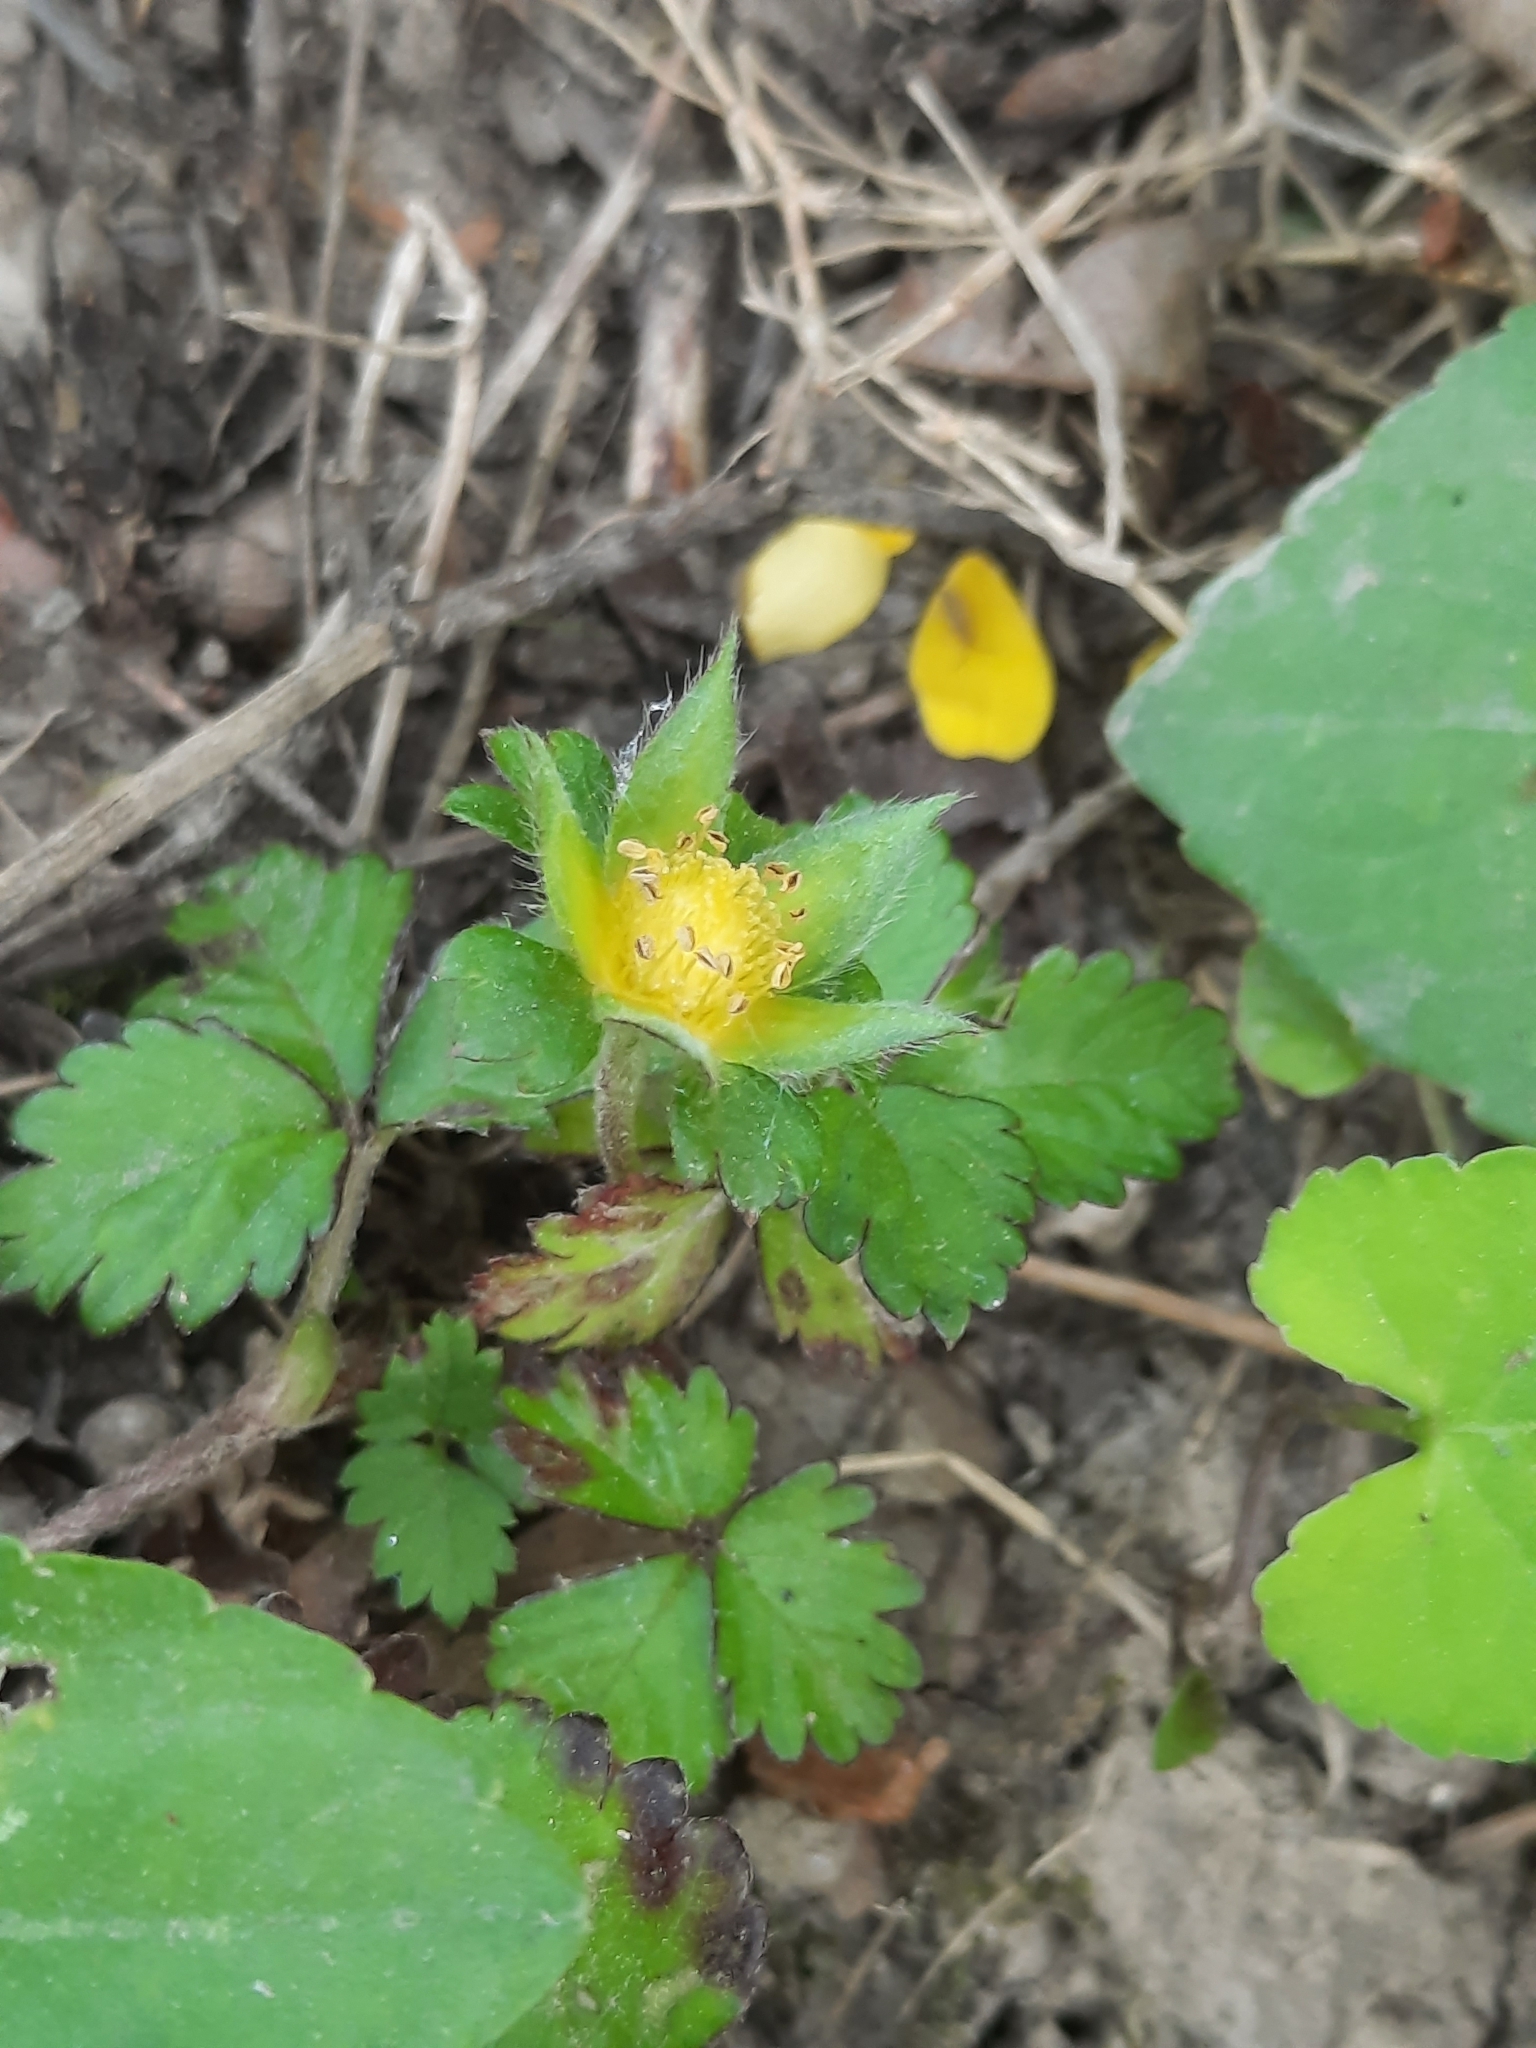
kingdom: Plantae
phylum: Tracheophyta
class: Magnoliopsida
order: Rosales
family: Rosaceae
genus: Potentilla
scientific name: Potentilla indica
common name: Yellow-flowered strawberry
